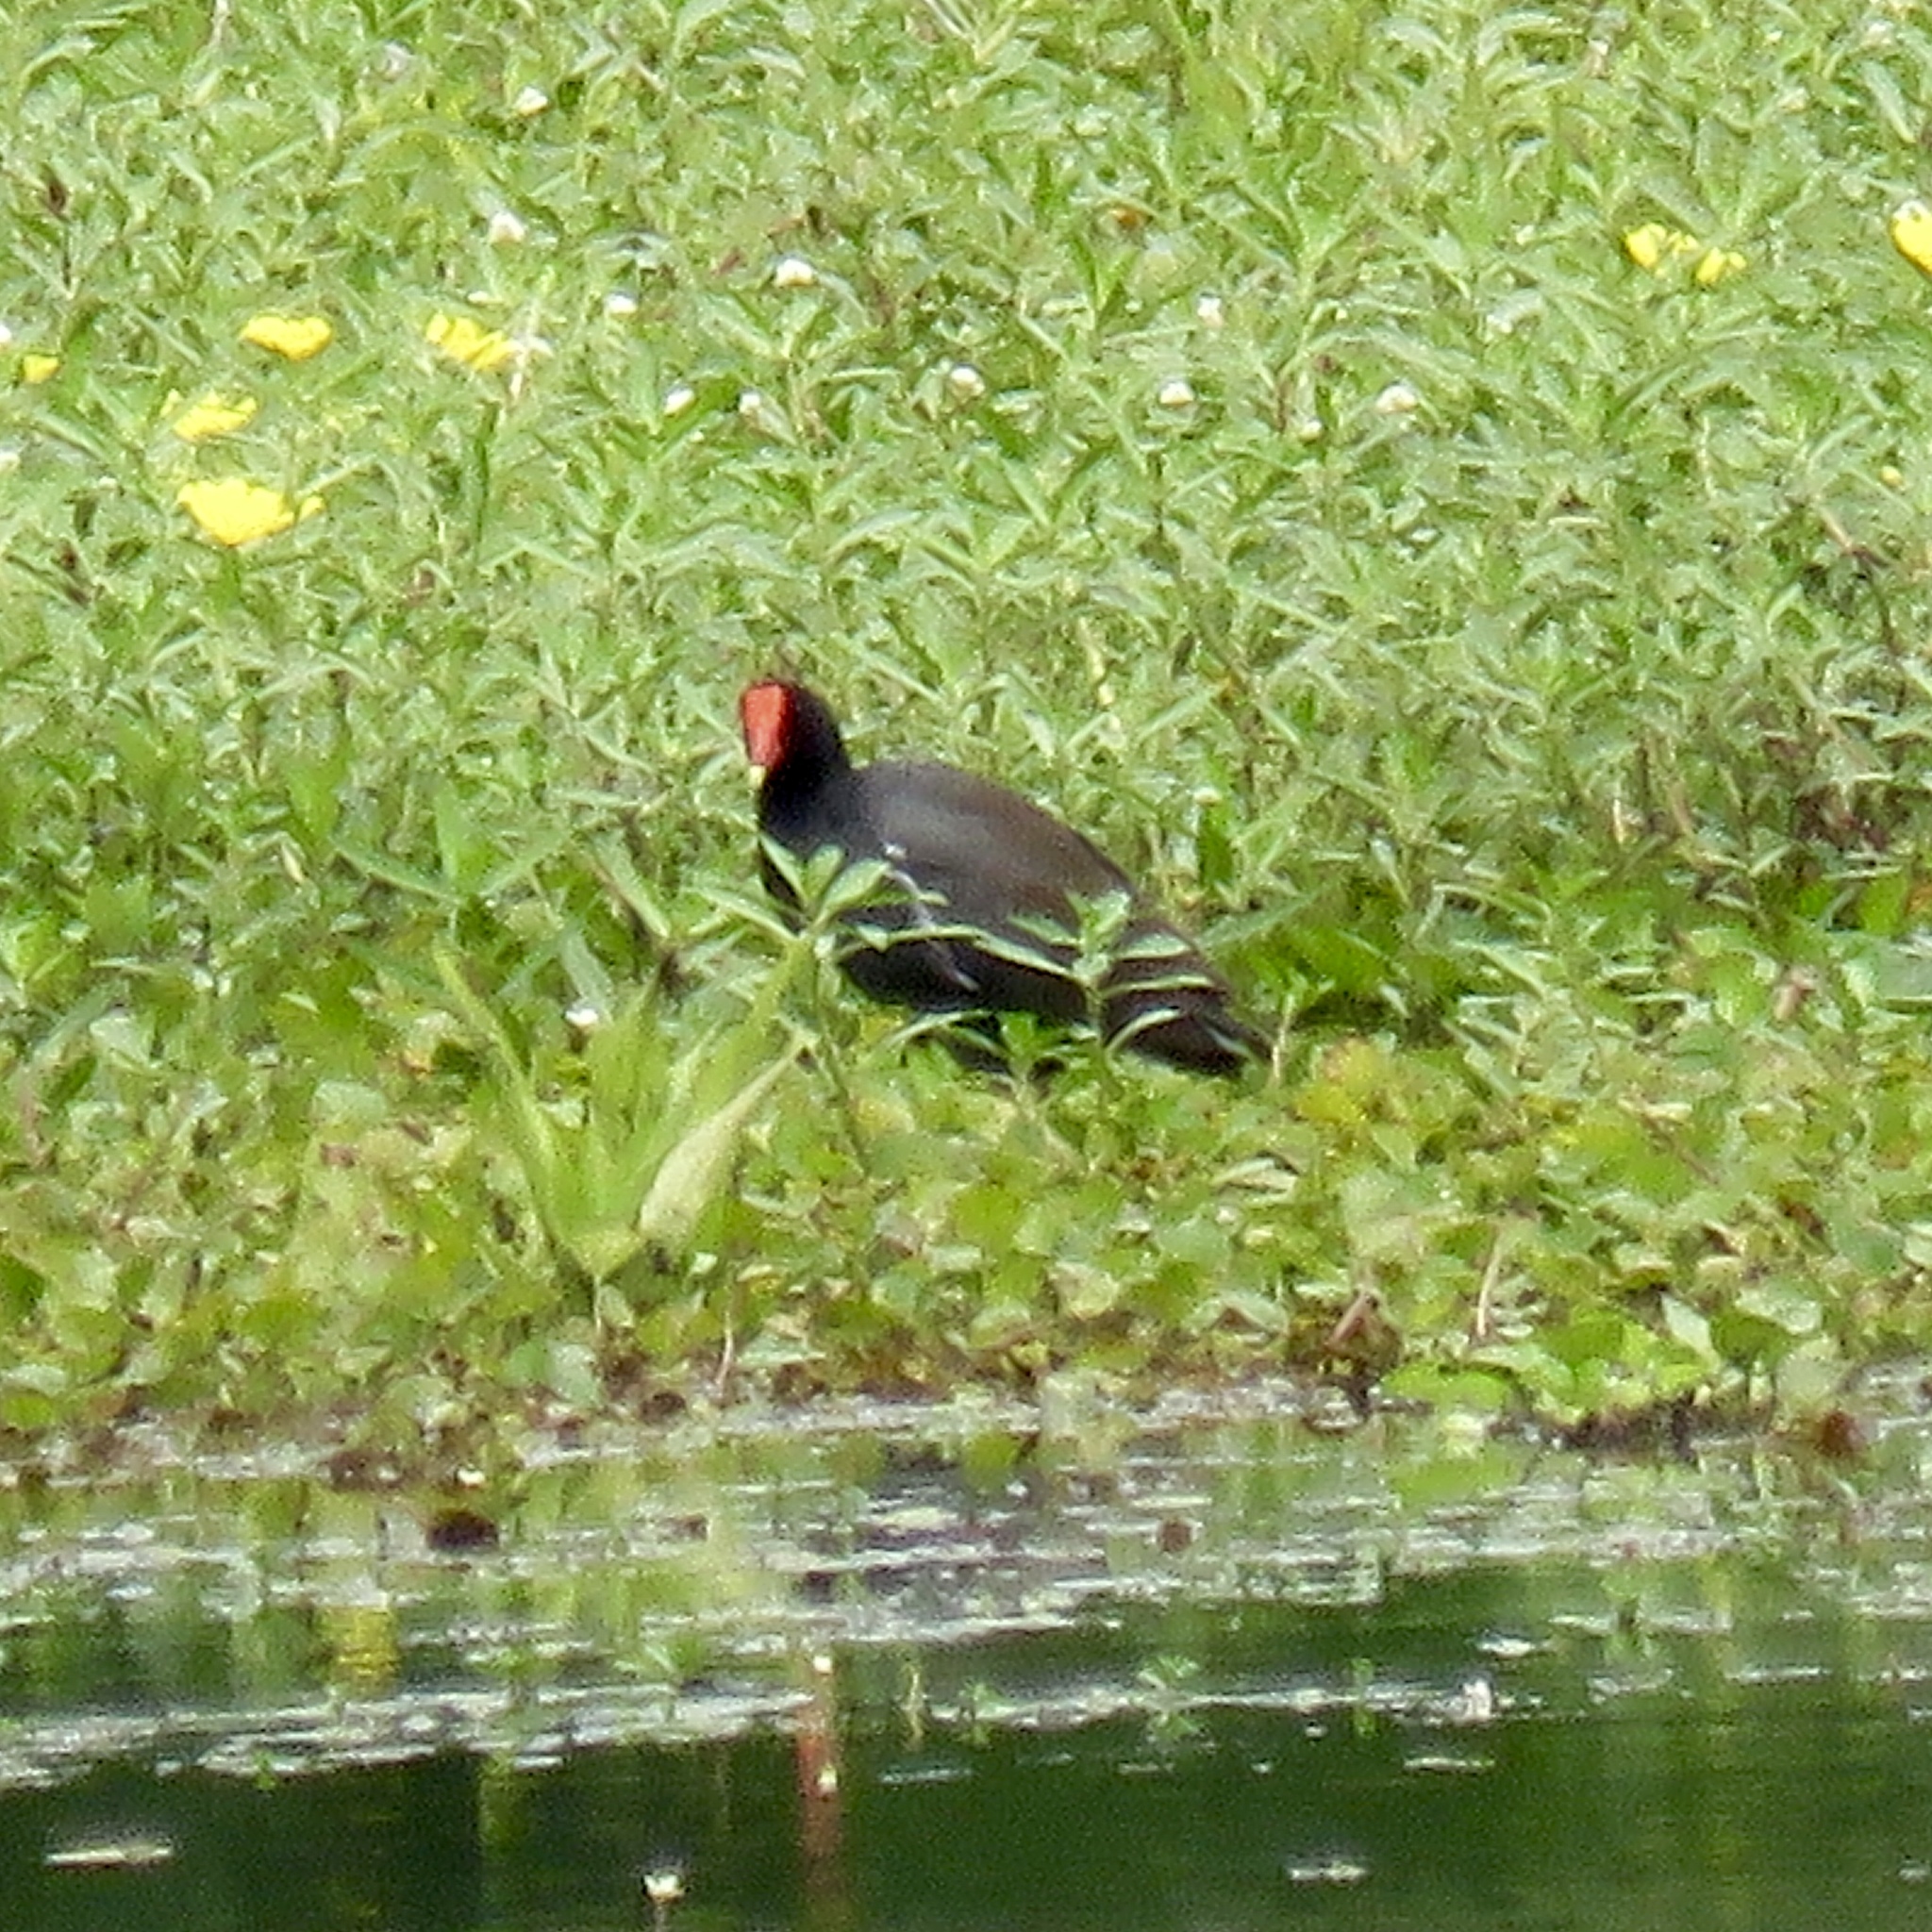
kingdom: Animalia
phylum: Chordata
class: Aves
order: Gruiformes
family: Rallidae
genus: Gallinula
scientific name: Gallinula chloropus
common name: Common moorhen
